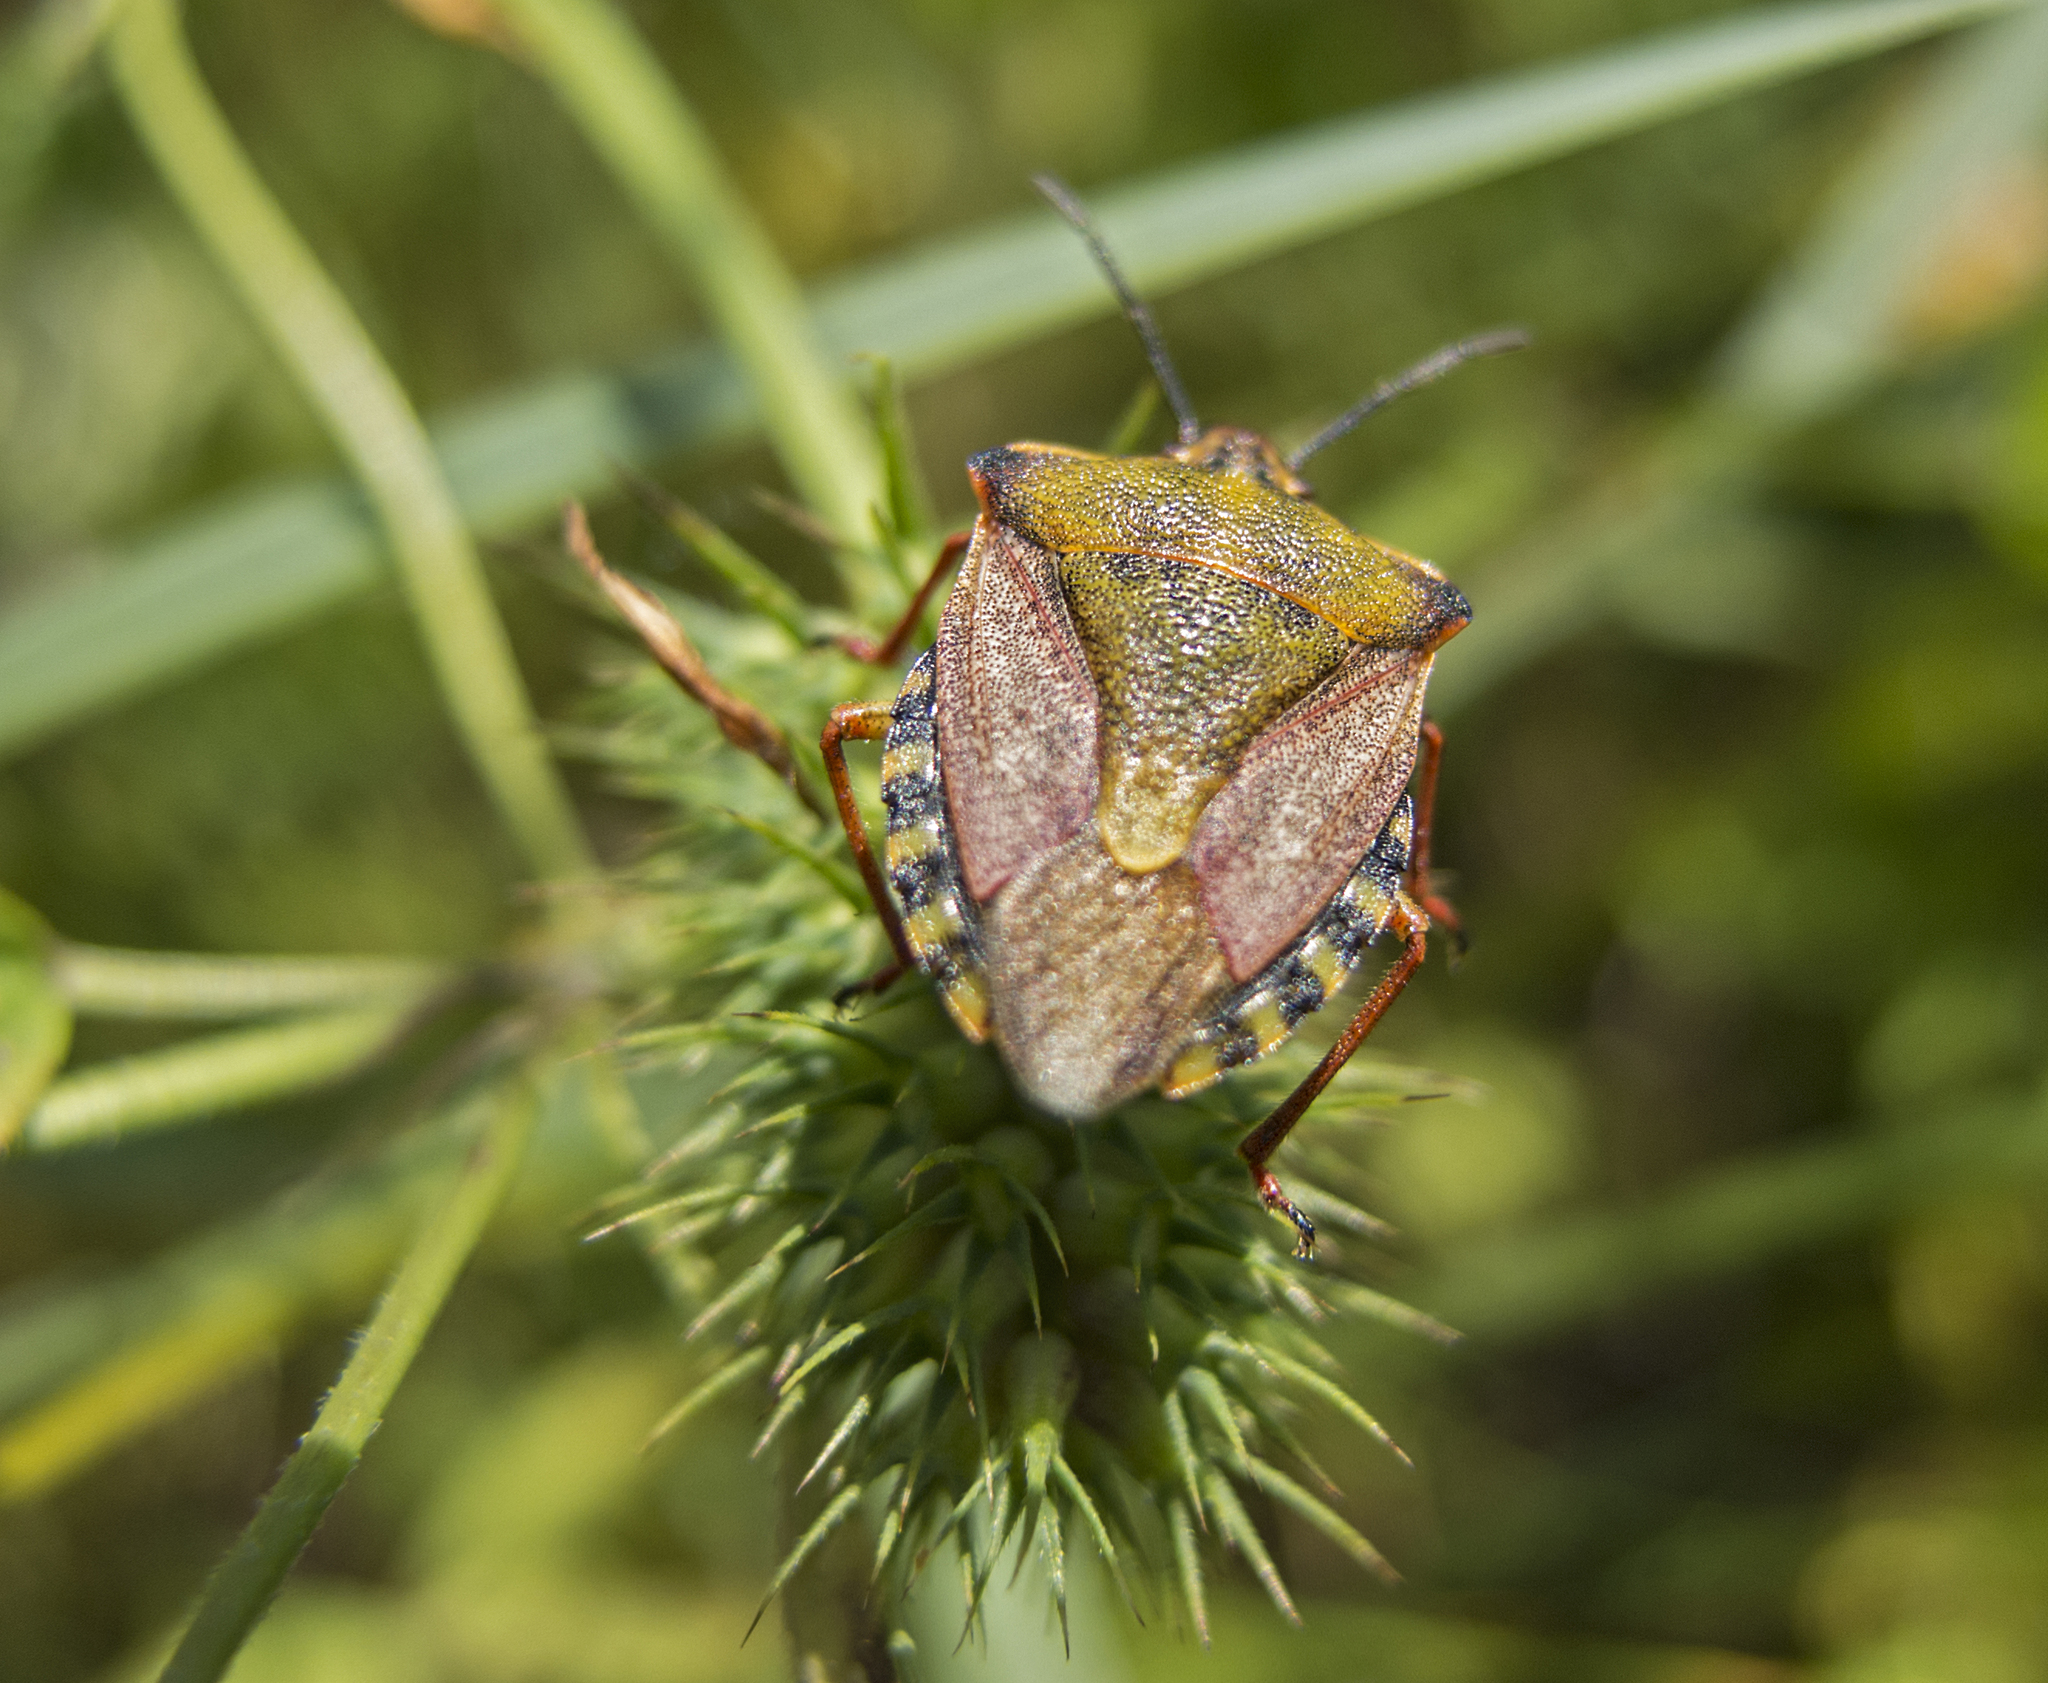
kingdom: Animalia
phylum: Arthropoda
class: Insecta
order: Hemiptera
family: Pentatomidae
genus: Carpocoris
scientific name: Carpocoris mediterraneus
